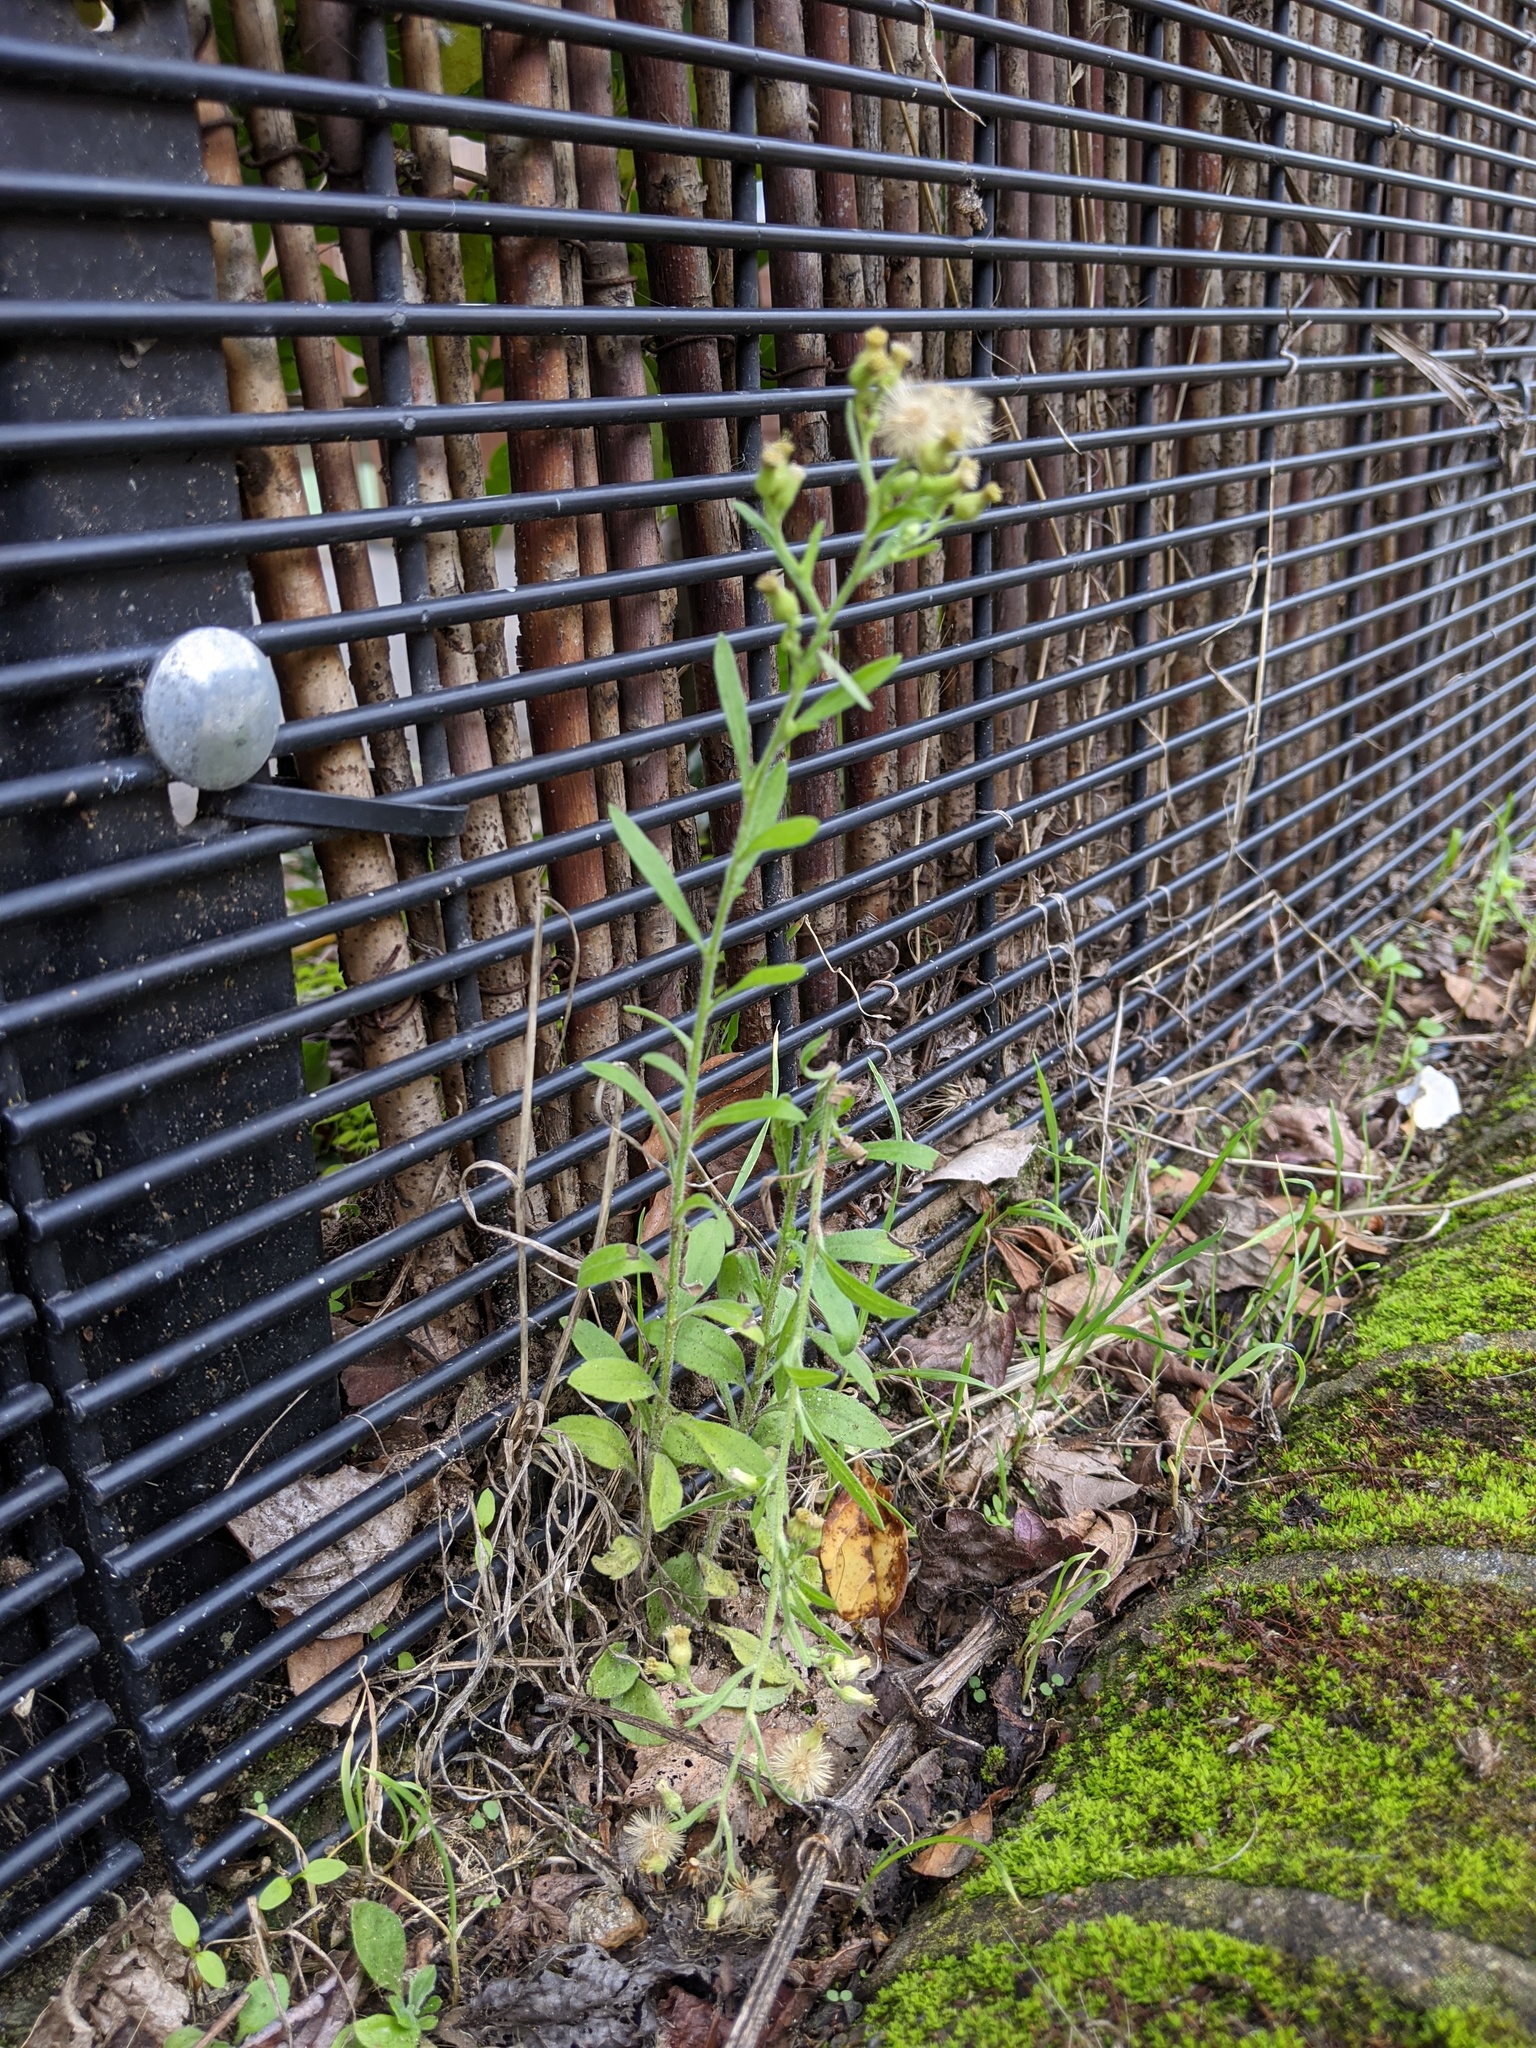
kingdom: Plantae
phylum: Tracheophyta
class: Magnoliopsida
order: Asterales
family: Asteraceae
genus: Erigeron
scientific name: Erigeron sumatrensis
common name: Daisy
